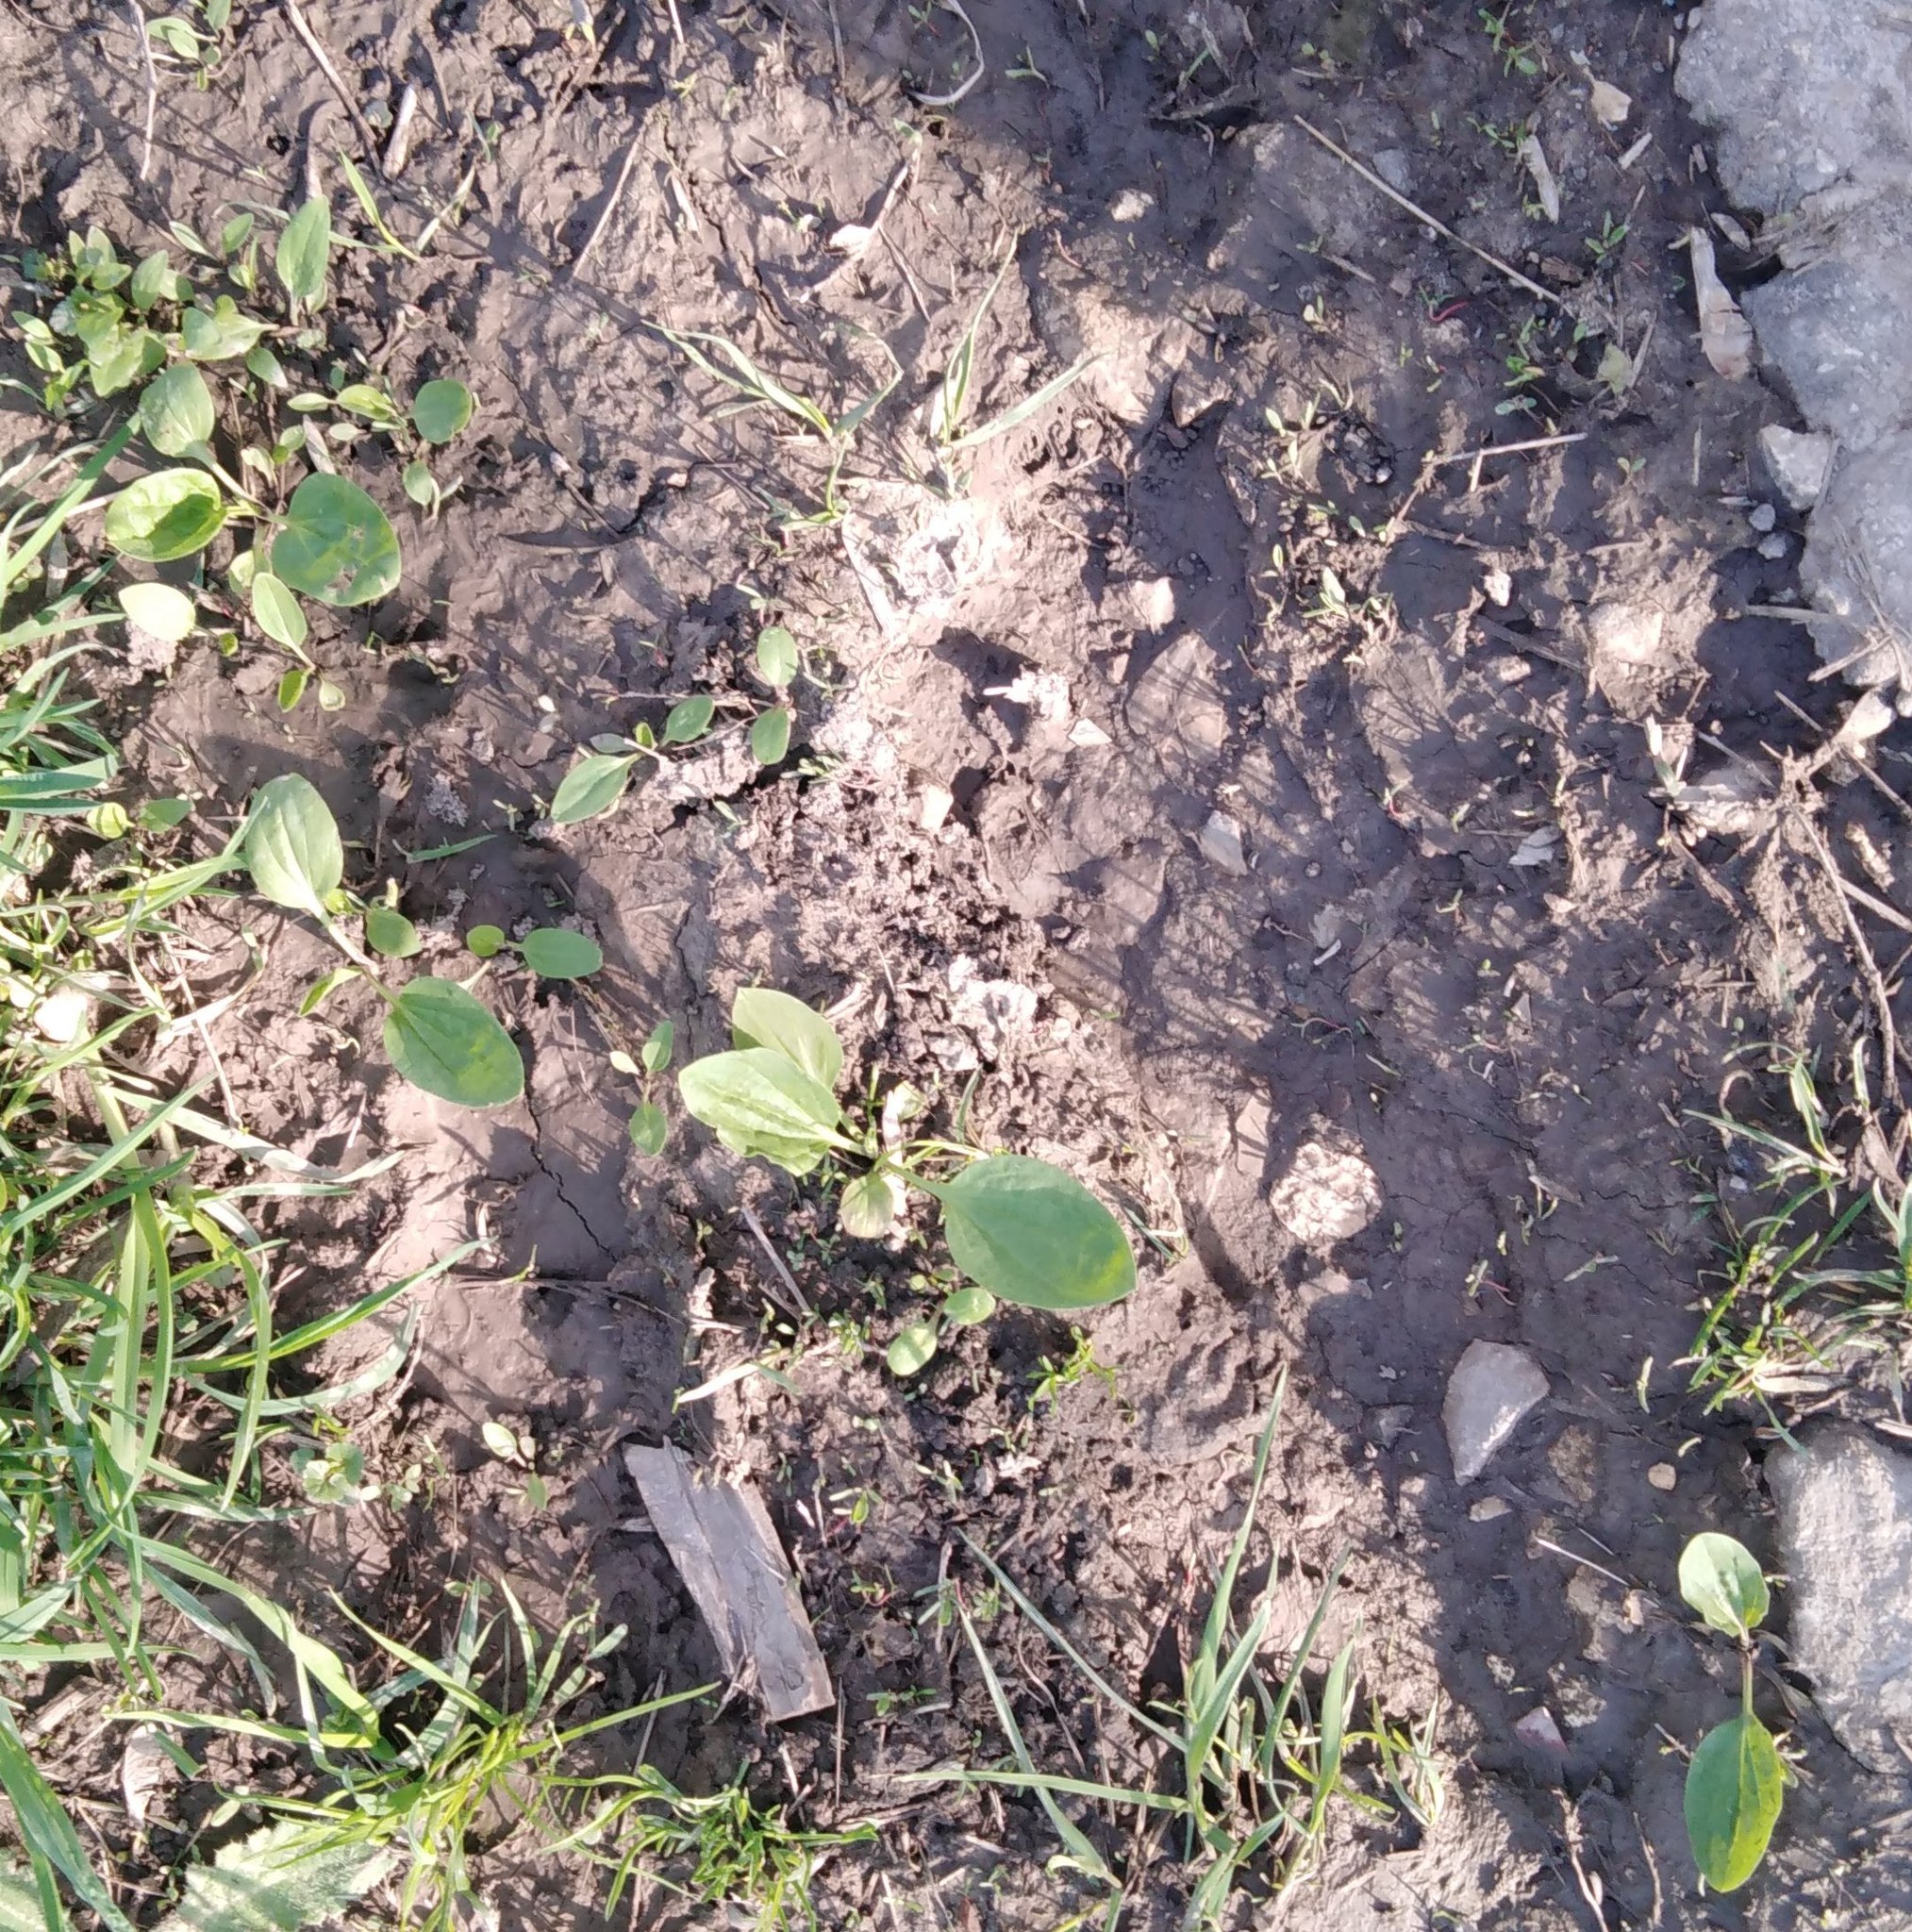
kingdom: Plantae
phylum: Tracheophyta
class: Magnoliopsida
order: Lamiales
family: Plantaginaceae
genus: Plantago
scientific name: Plantago major
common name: Common plantain
